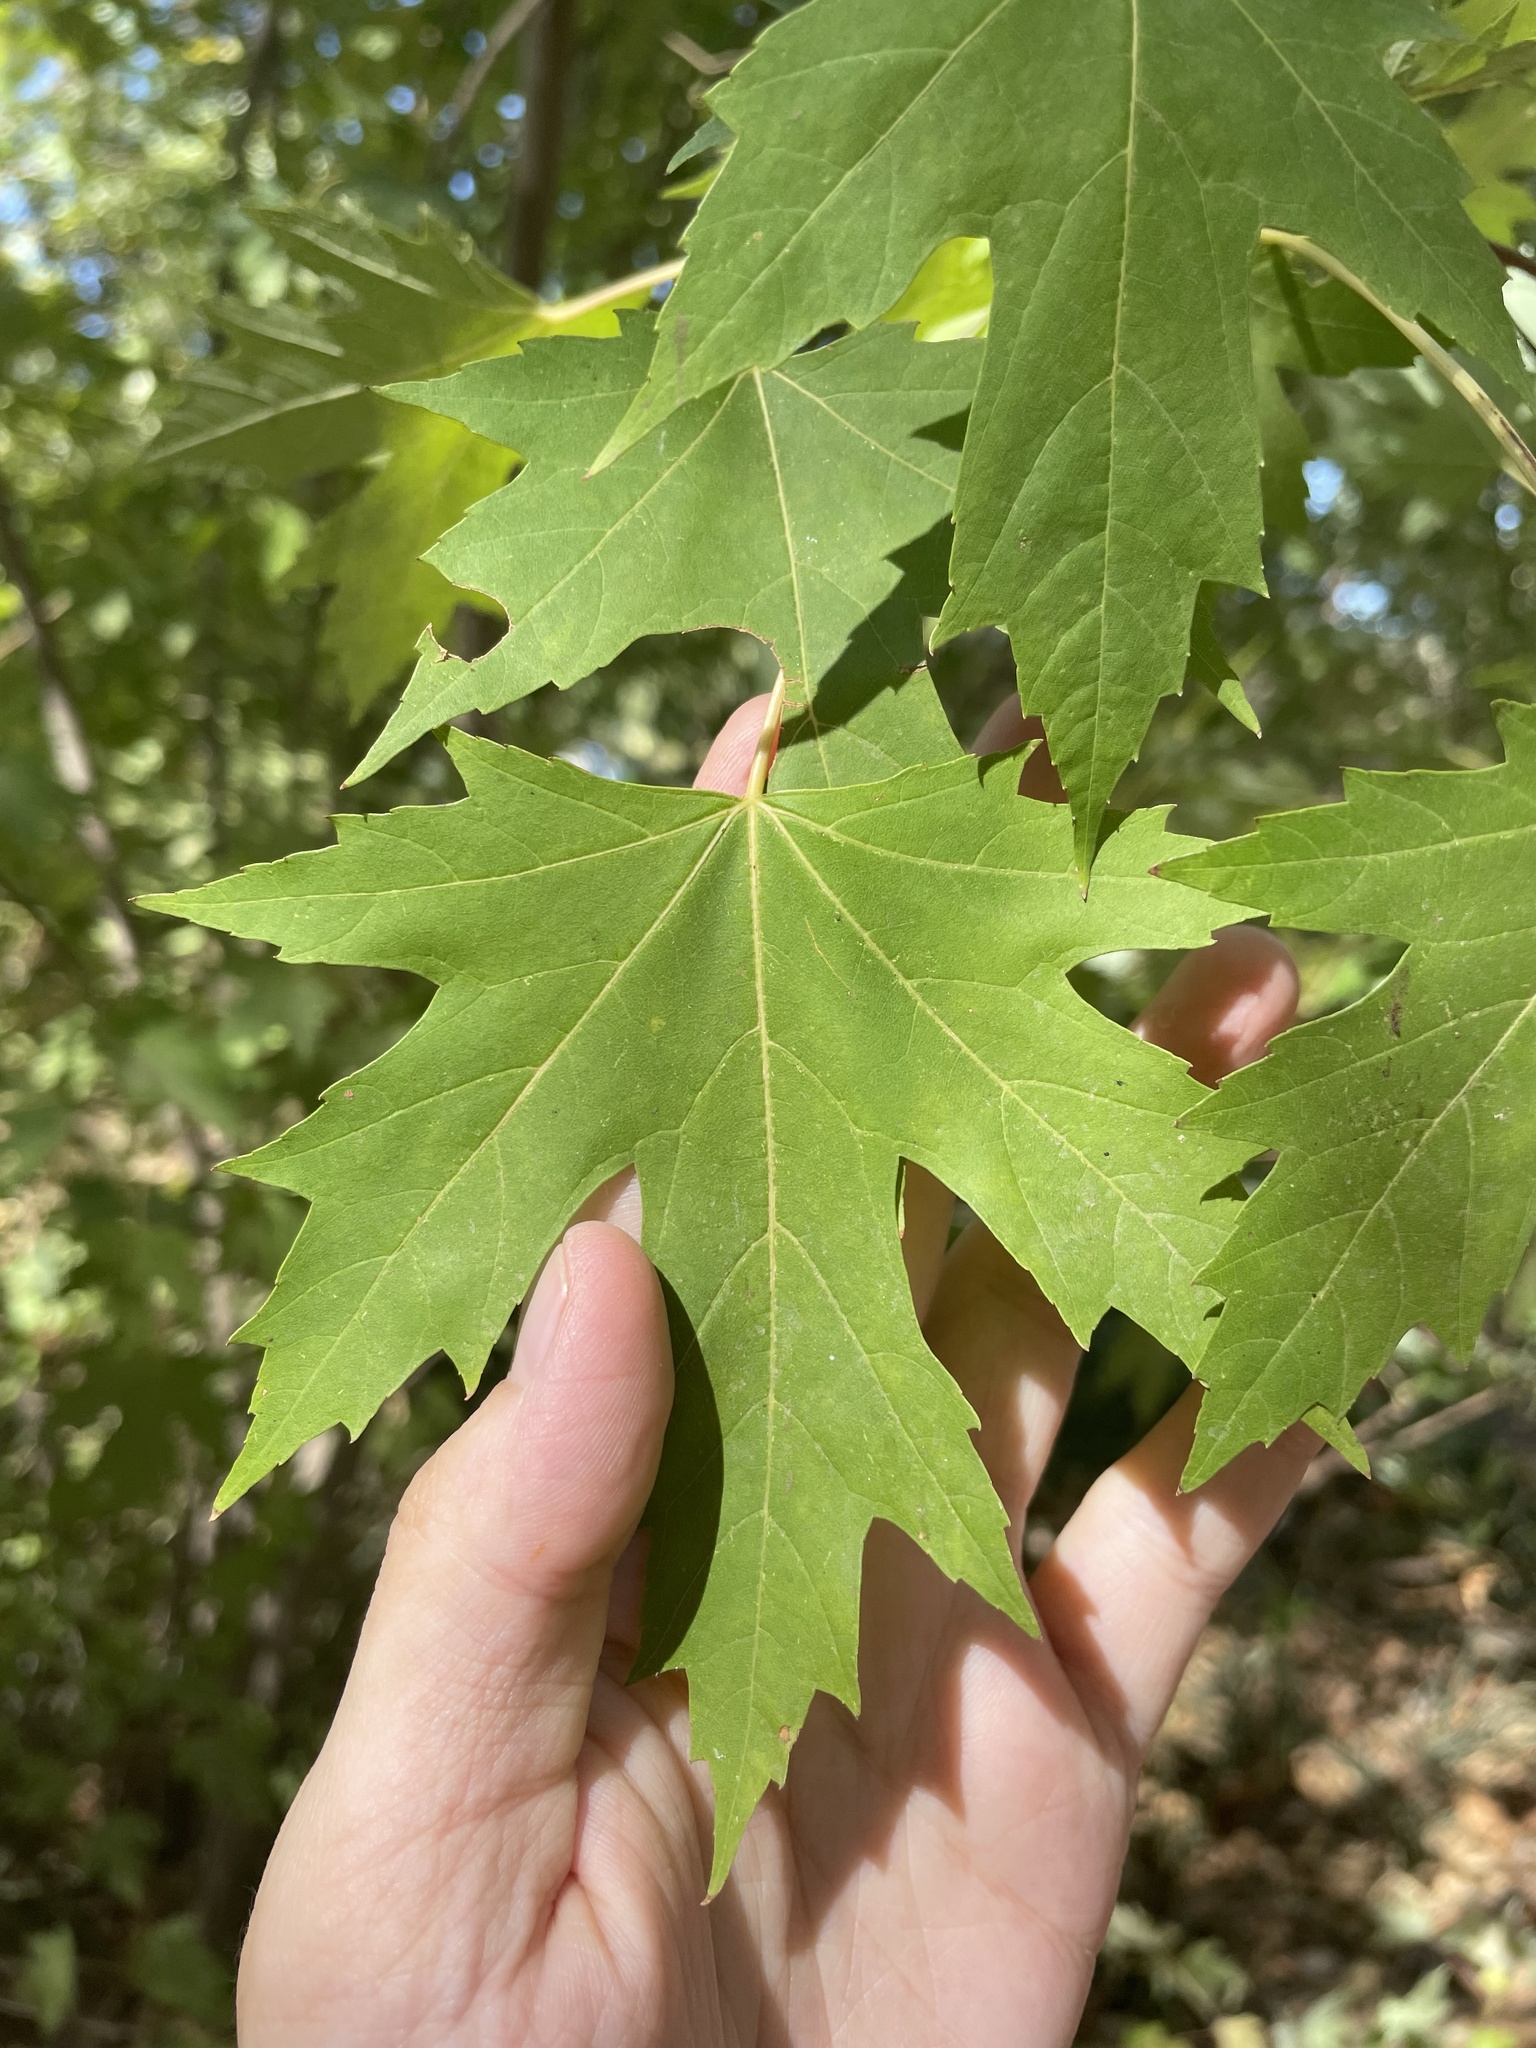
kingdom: Plantae
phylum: Tracheophyta
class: Magnoliopsida
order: Sapindales
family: Sapindaceae
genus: Acer
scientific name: Acer saccharinum
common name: Silver maple
